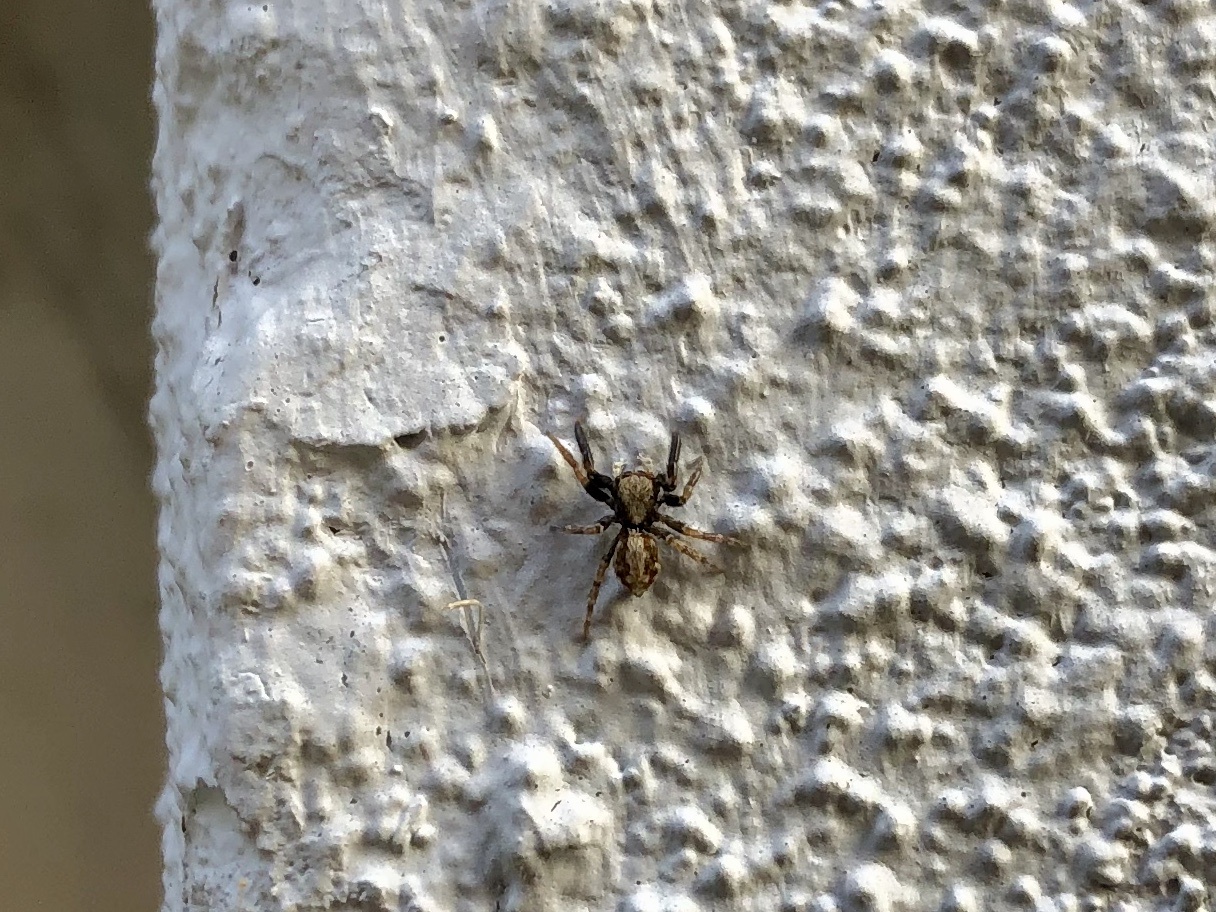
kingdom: Animalia
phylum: Arthropoda
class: Arachnida
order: Araneae
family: Salticidae
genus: Pseudeuophrys
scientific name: Pseudeuophrys lanigera
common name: Jumping spider
